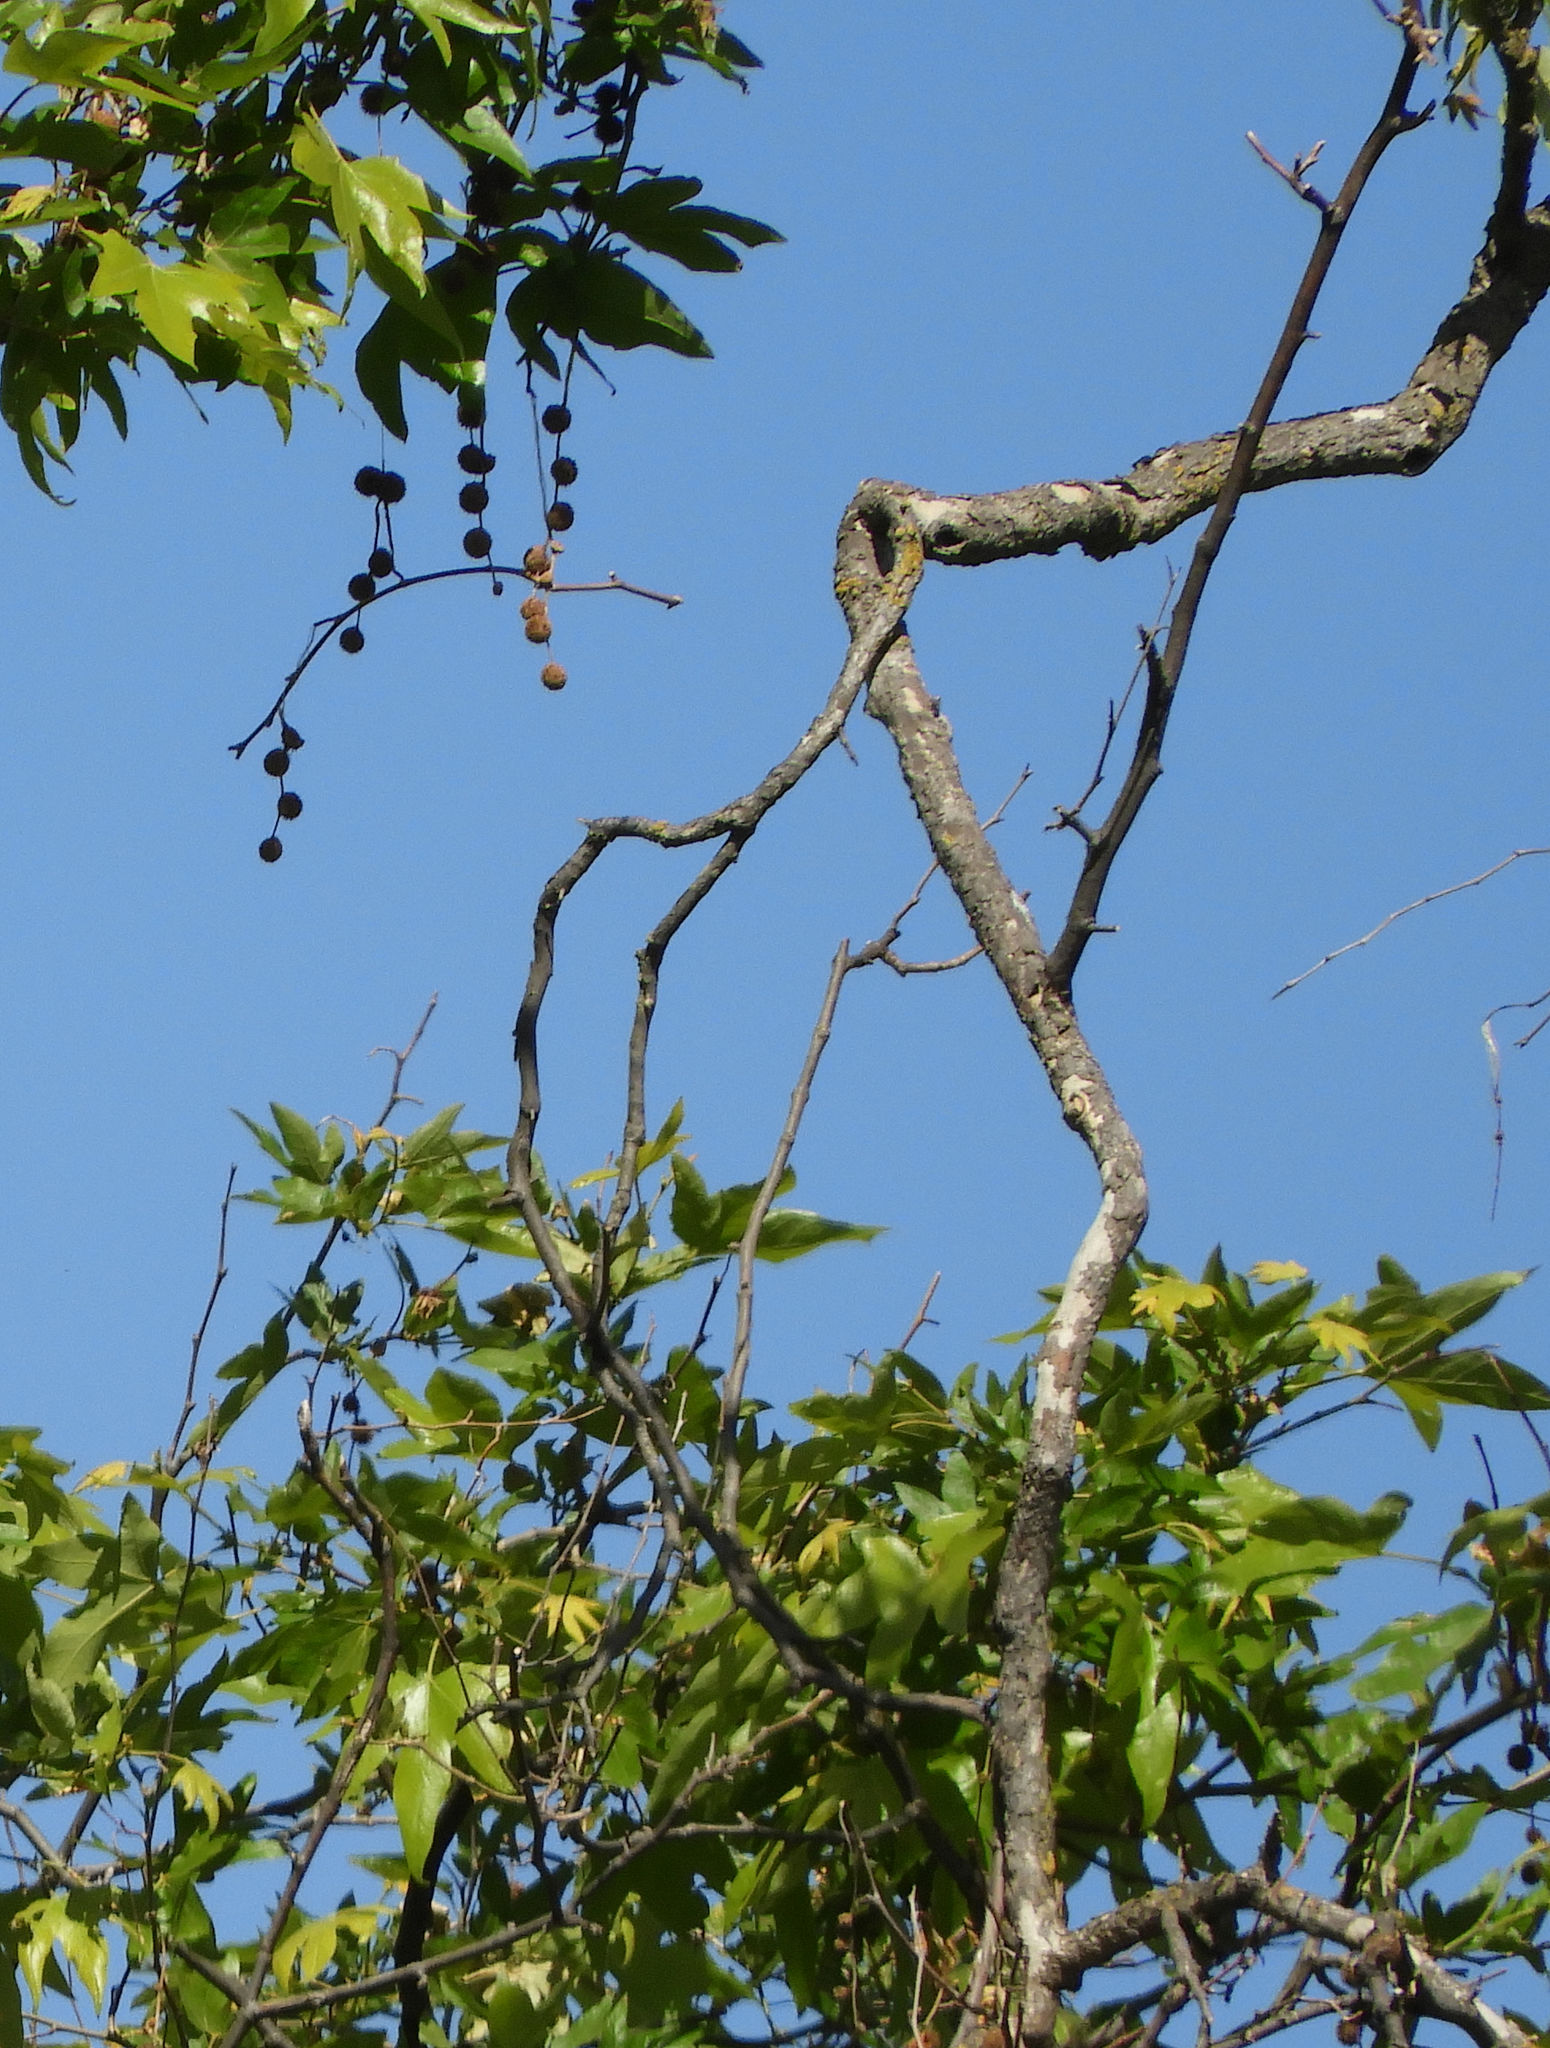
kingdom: Plantae
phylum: Tracheophyta
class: Magnoliopsida
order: Proteales
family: Platanaceae
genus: Platanus
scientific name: Platanus hispanica
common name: London plane
